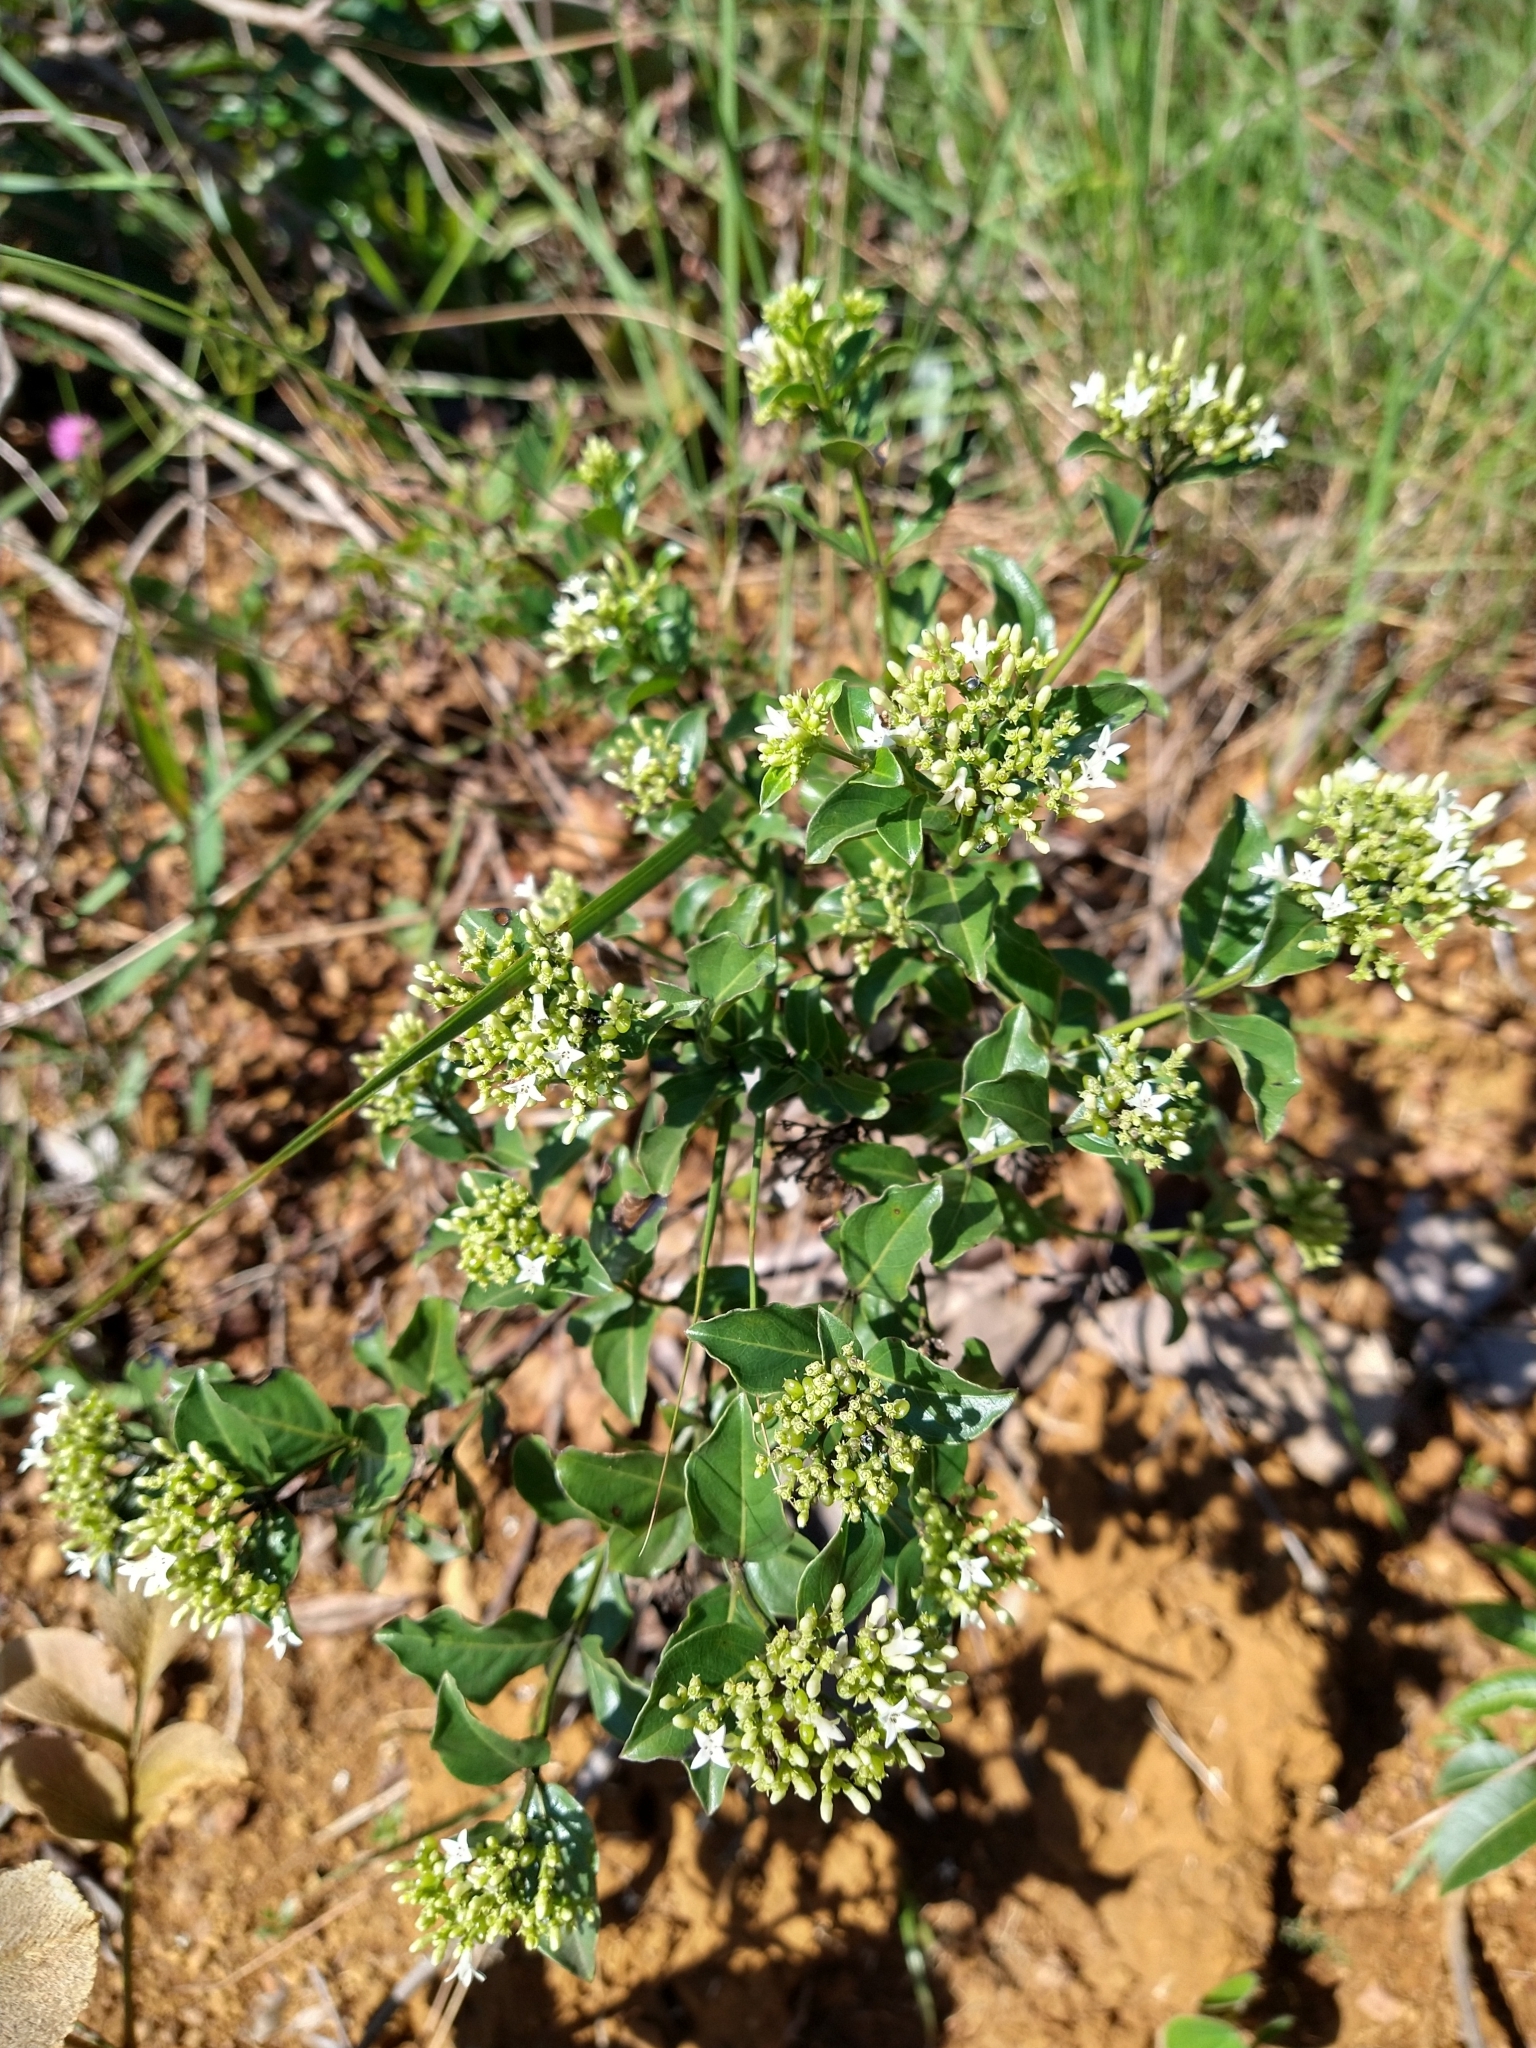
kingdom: Plantae
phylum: Tracheophyta
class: Magnoliopsida
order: Gentianales
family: Rubiaceae
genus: Declieuxia
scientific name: Declieuxia fruticosa
